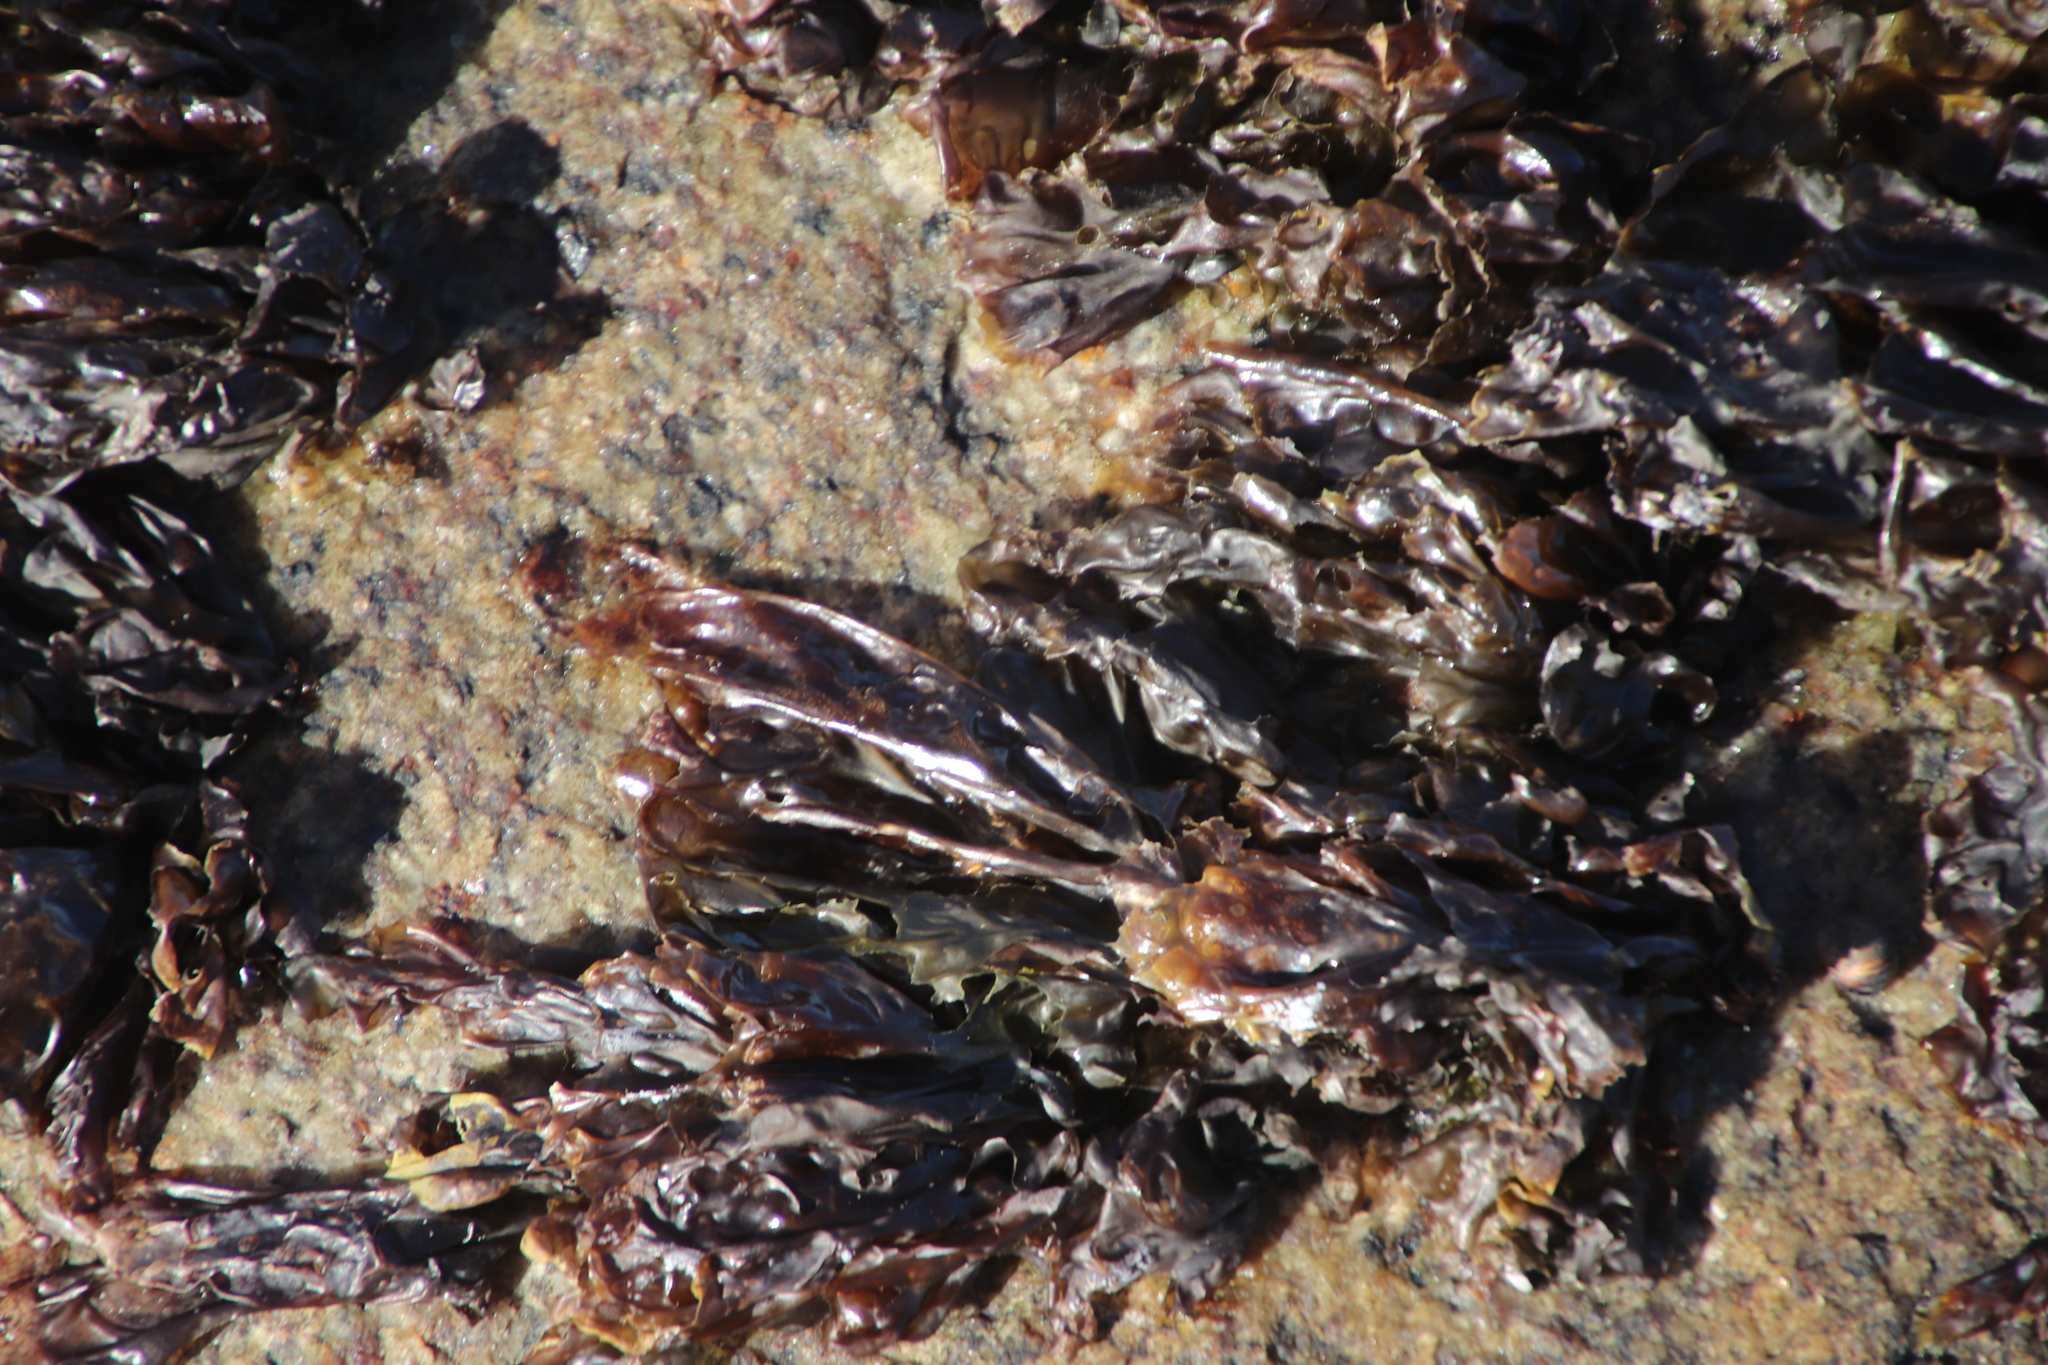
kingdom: Plantae
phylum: Rhodophyta
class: Bangiophyceae
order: Bangiales
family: Bangiaceae
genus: Porphyra
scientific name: Porphyra capensis
